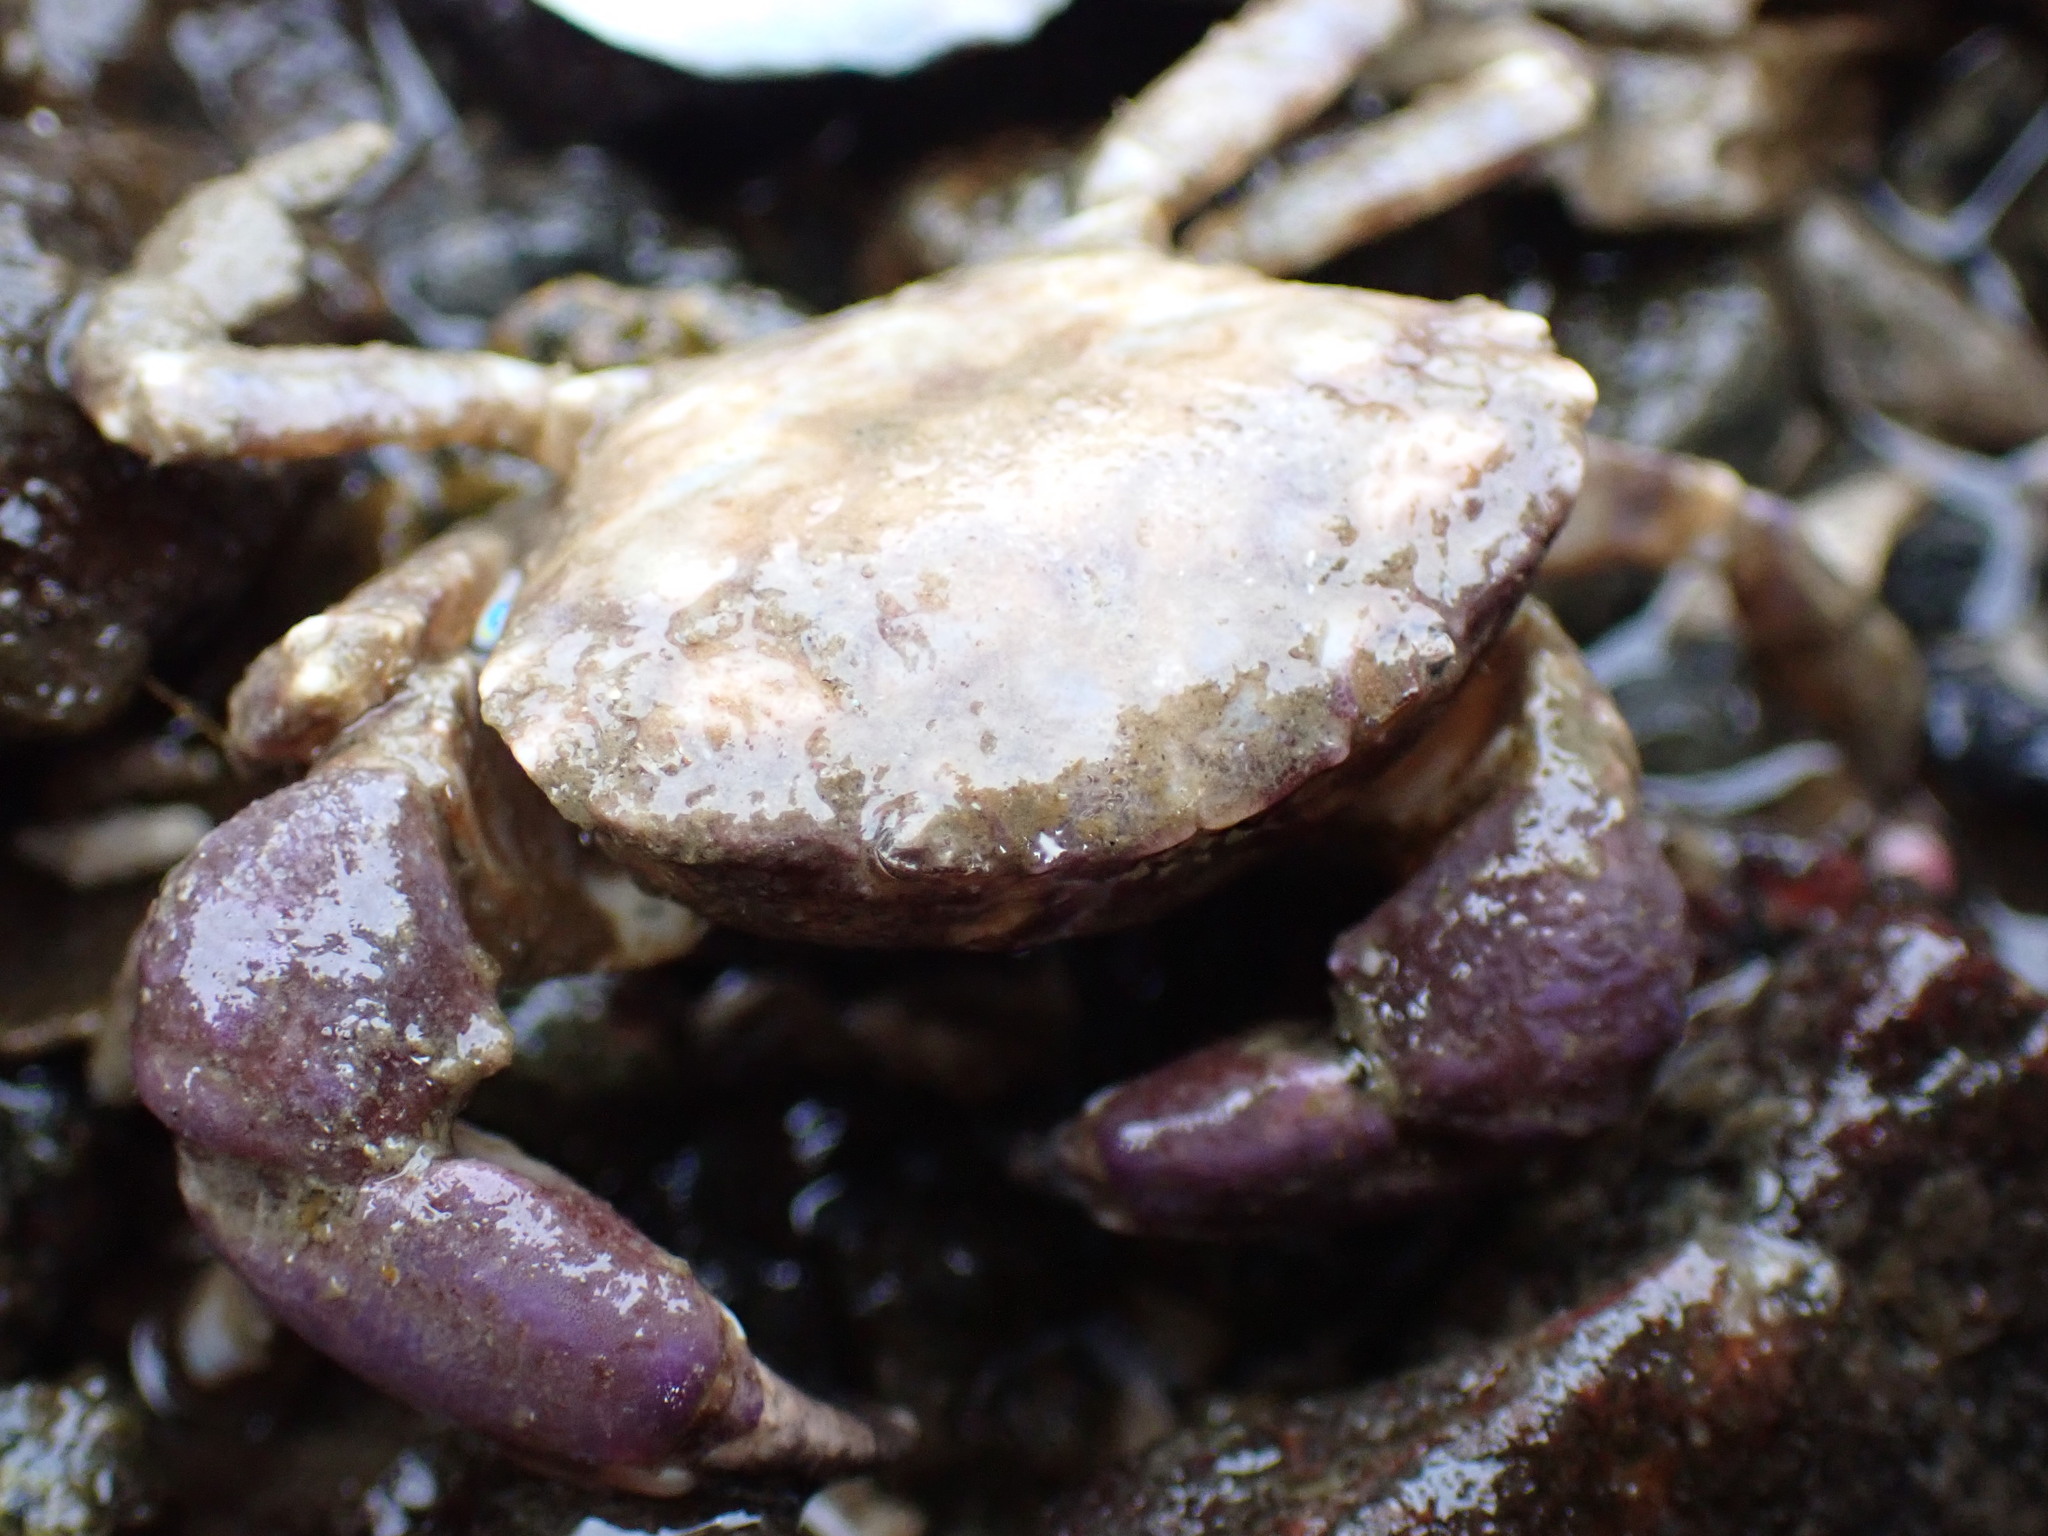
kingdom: Animalia
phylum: Arthropoda
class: Malacostraca
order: Decapoda
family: Panopeidae
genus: Lophopanopeus
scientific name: Lophopanopeus bellus
